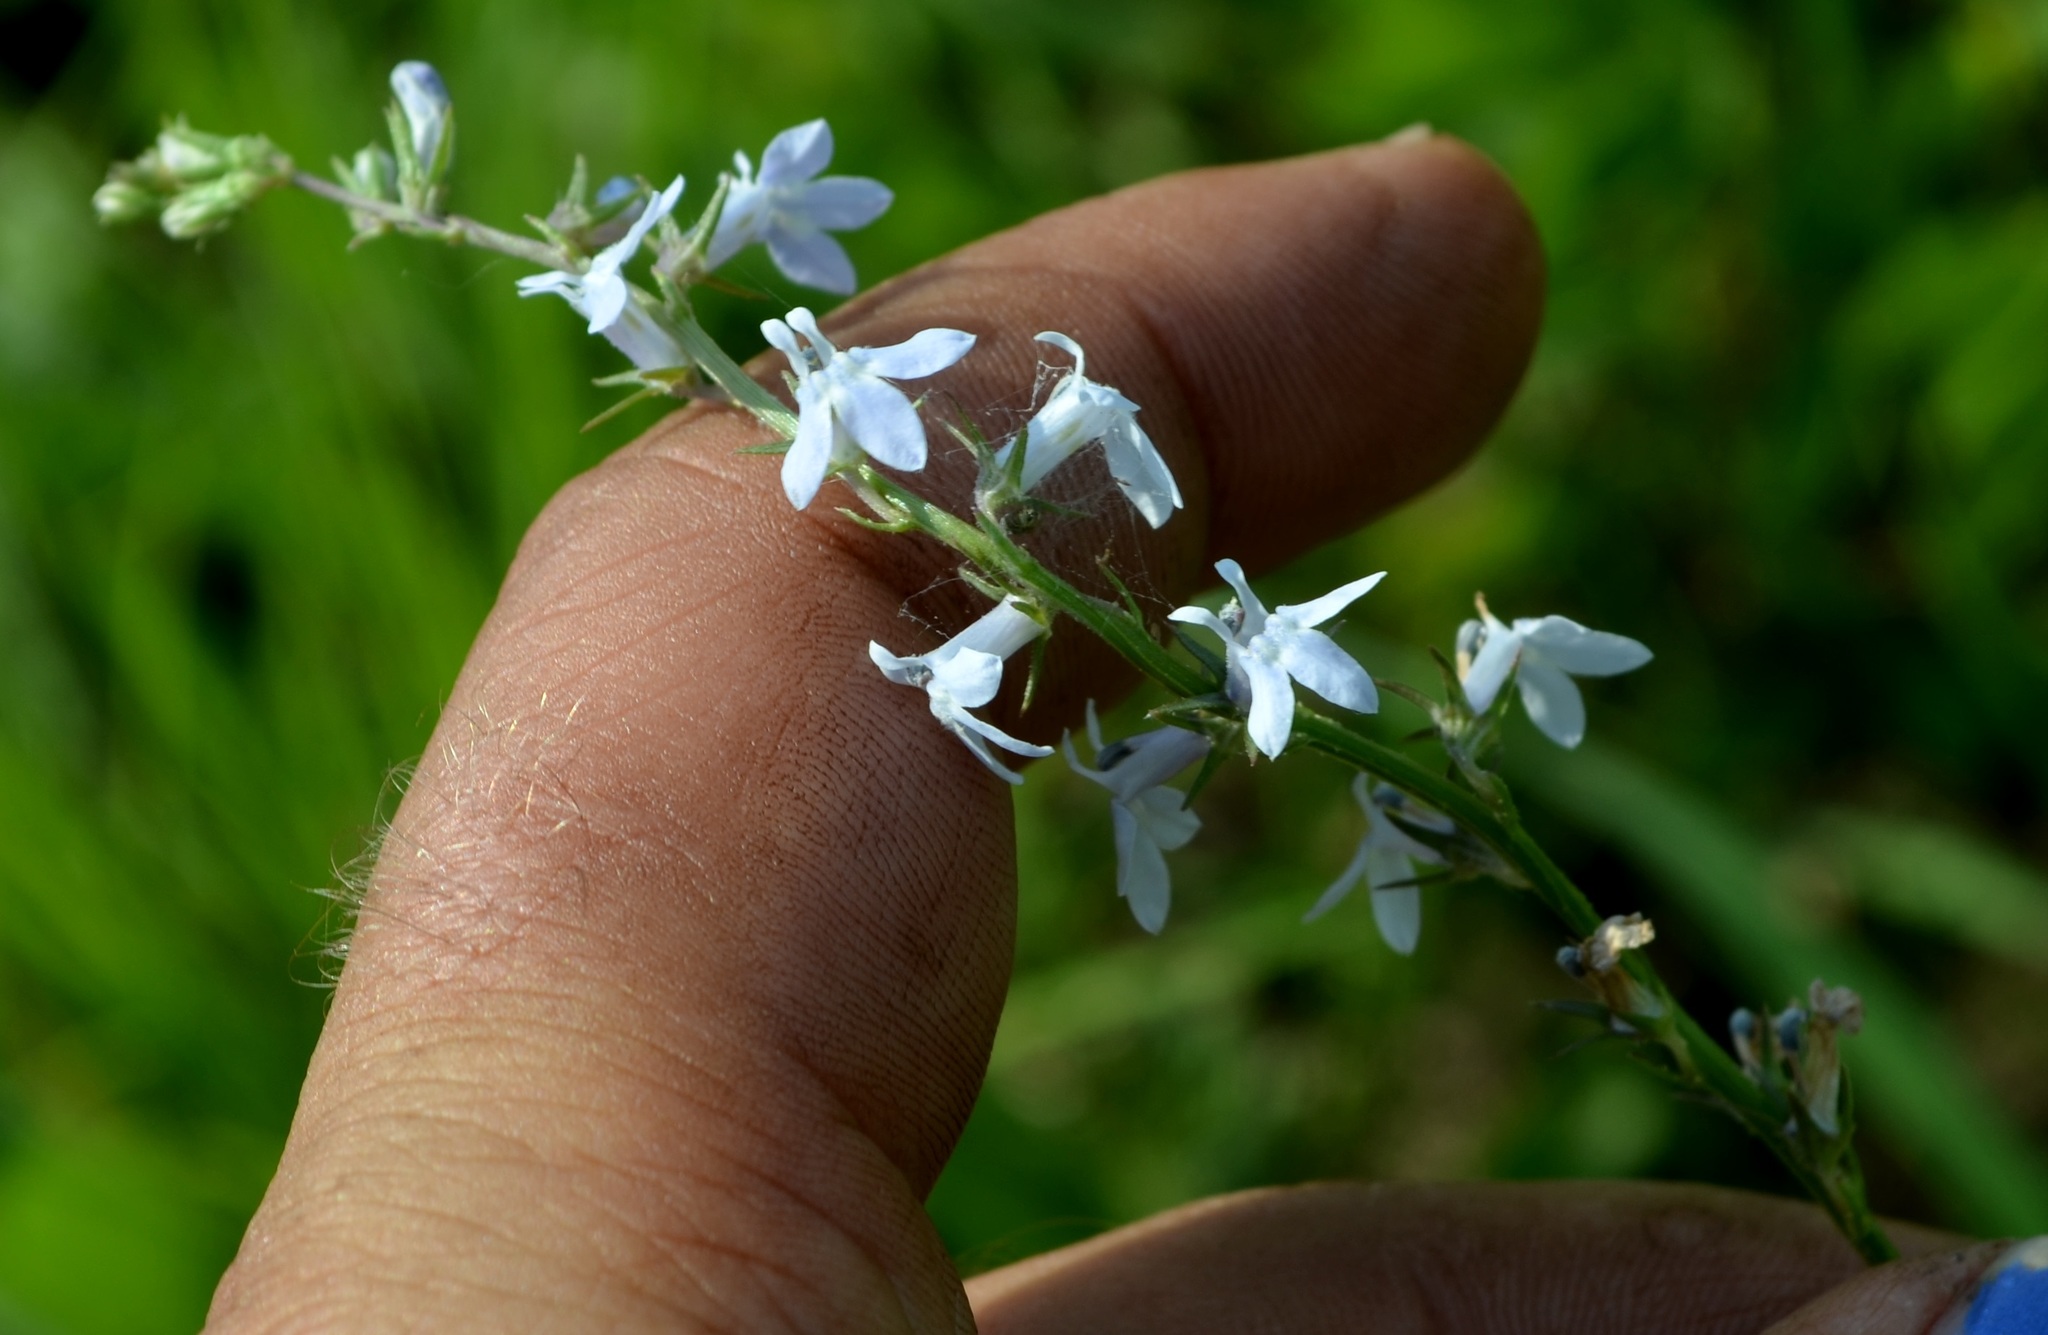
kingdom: Plantae
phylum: Tracheophyta
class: Magnoliopsida
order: Asterales
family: Campanulaceae
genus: Lobelia
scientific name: Lobelia spicata
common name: Pale-spike lobelia
